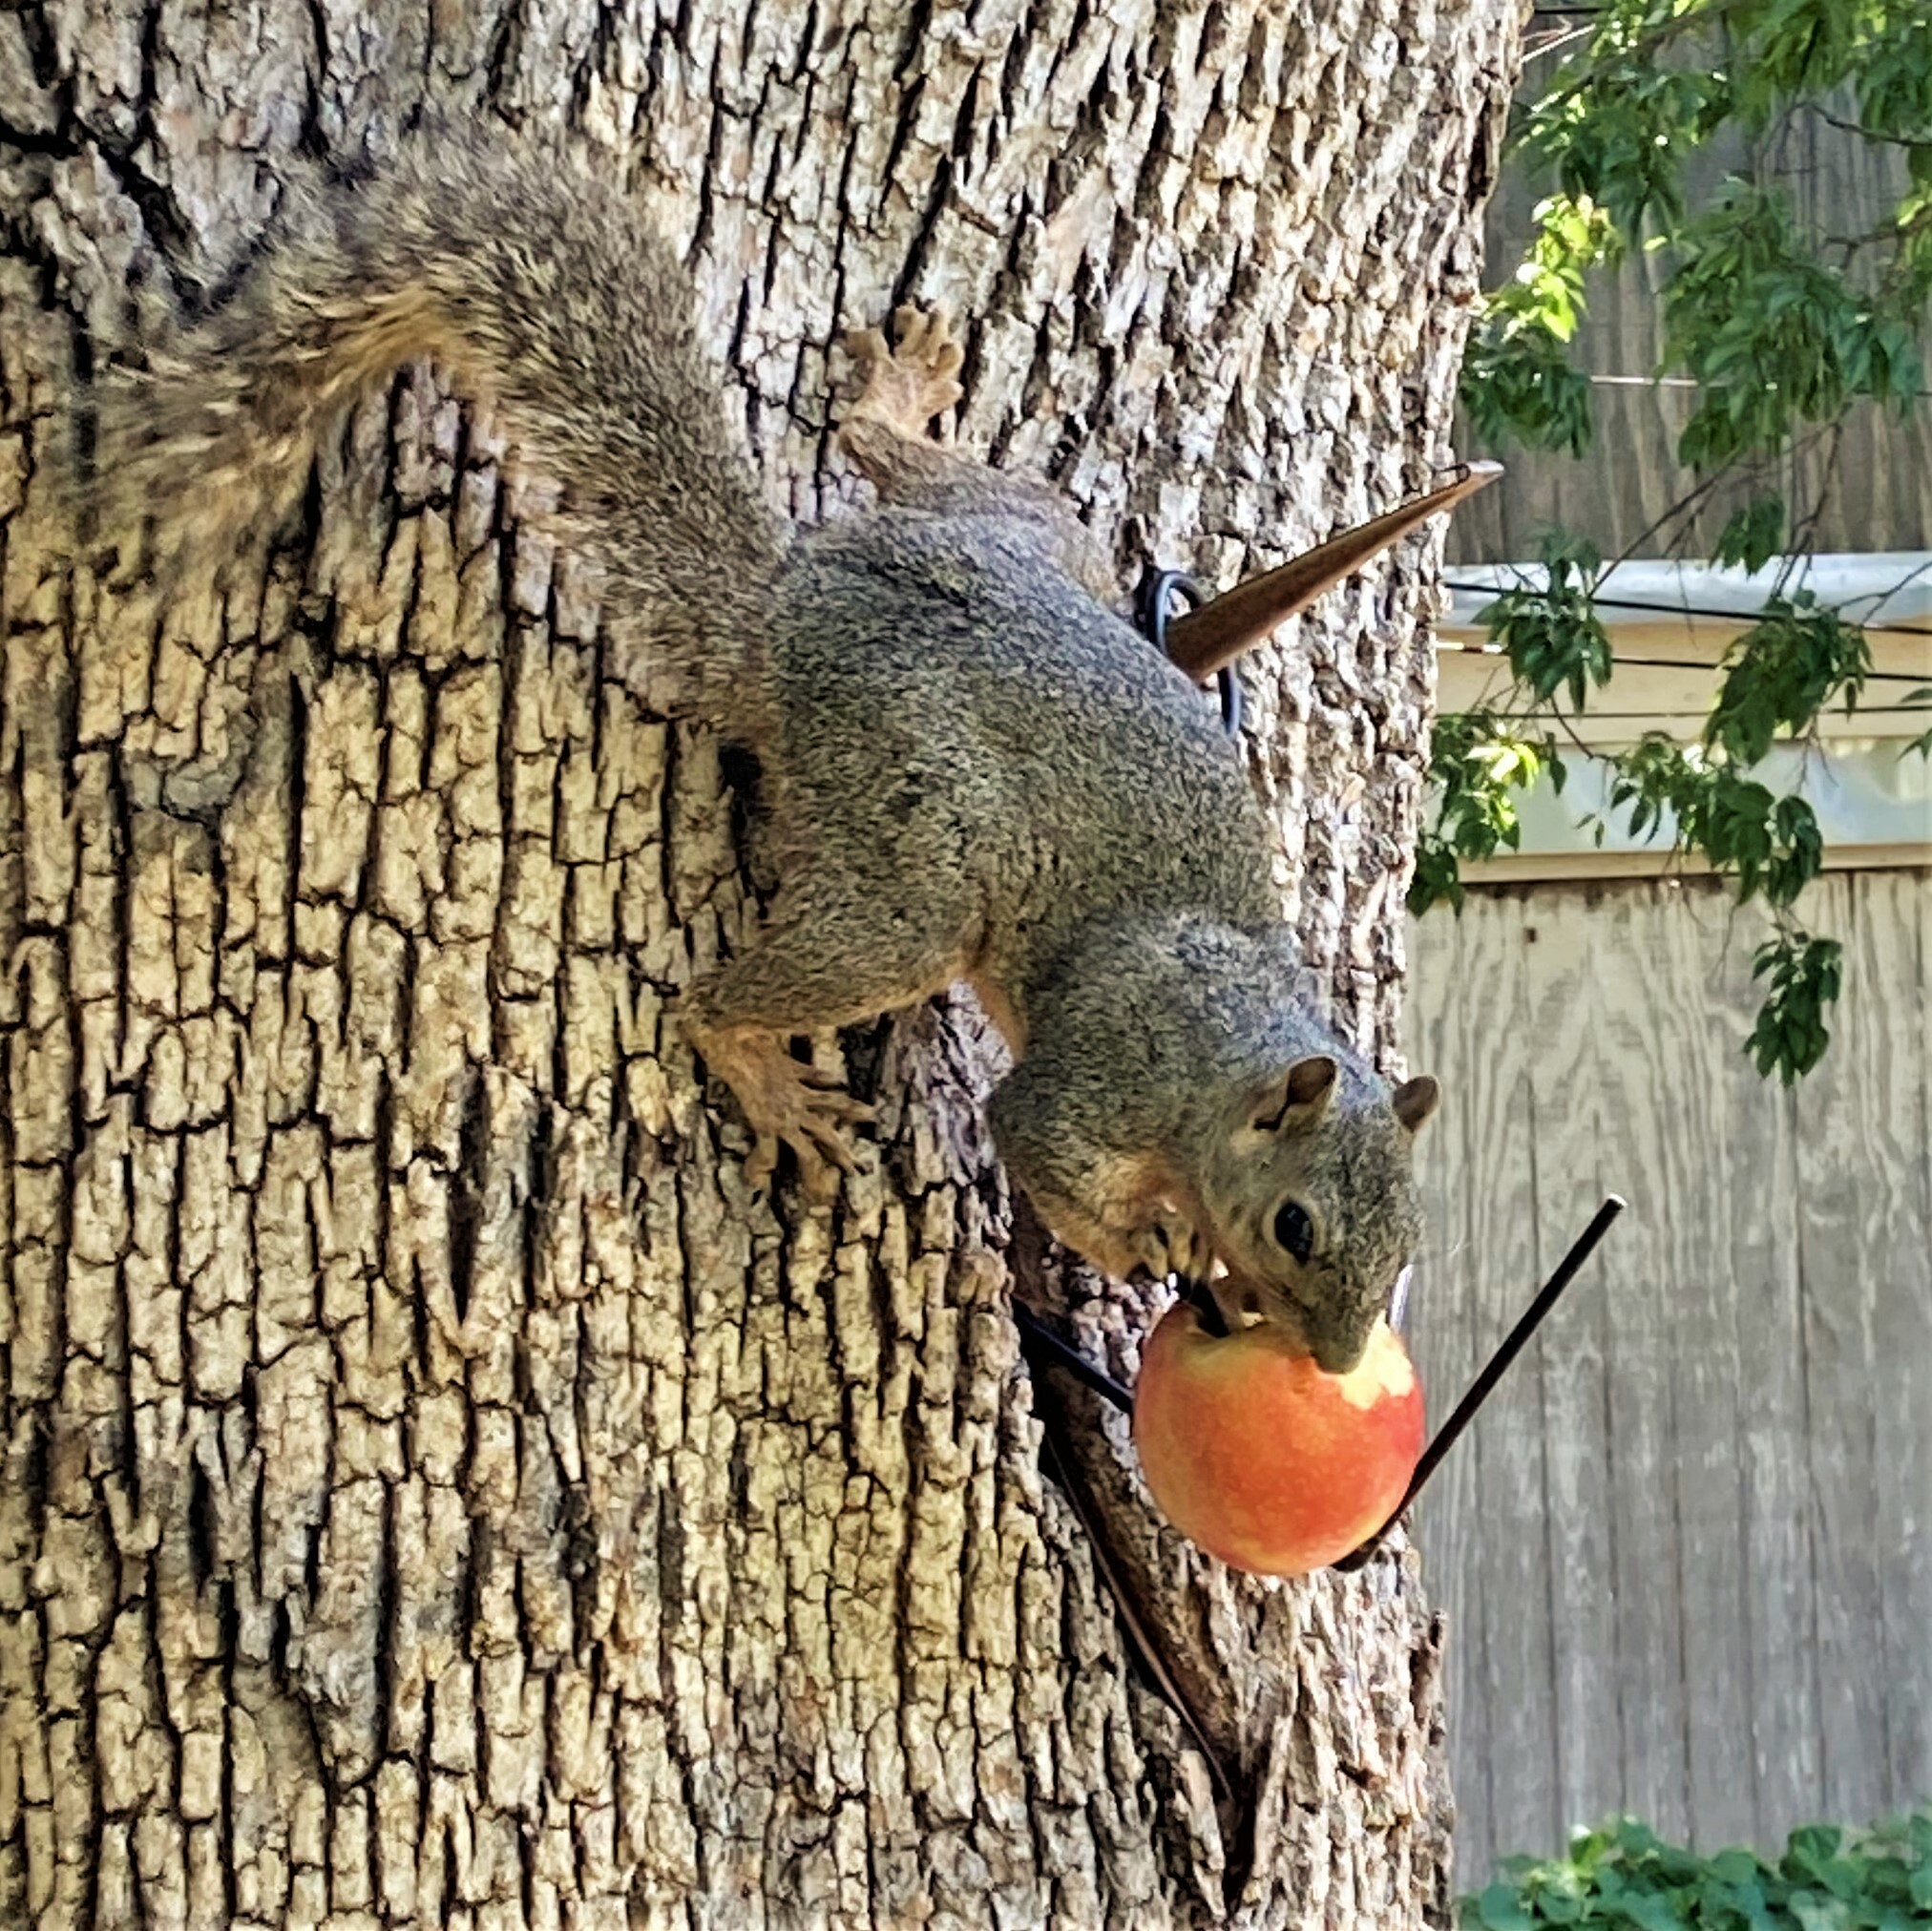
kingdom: Animalia
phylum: Chordata
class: Mammalia
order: Rodentia
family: Sciuridae
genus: Sciurus
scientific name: Sciurus niger
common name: Fox squirrel
